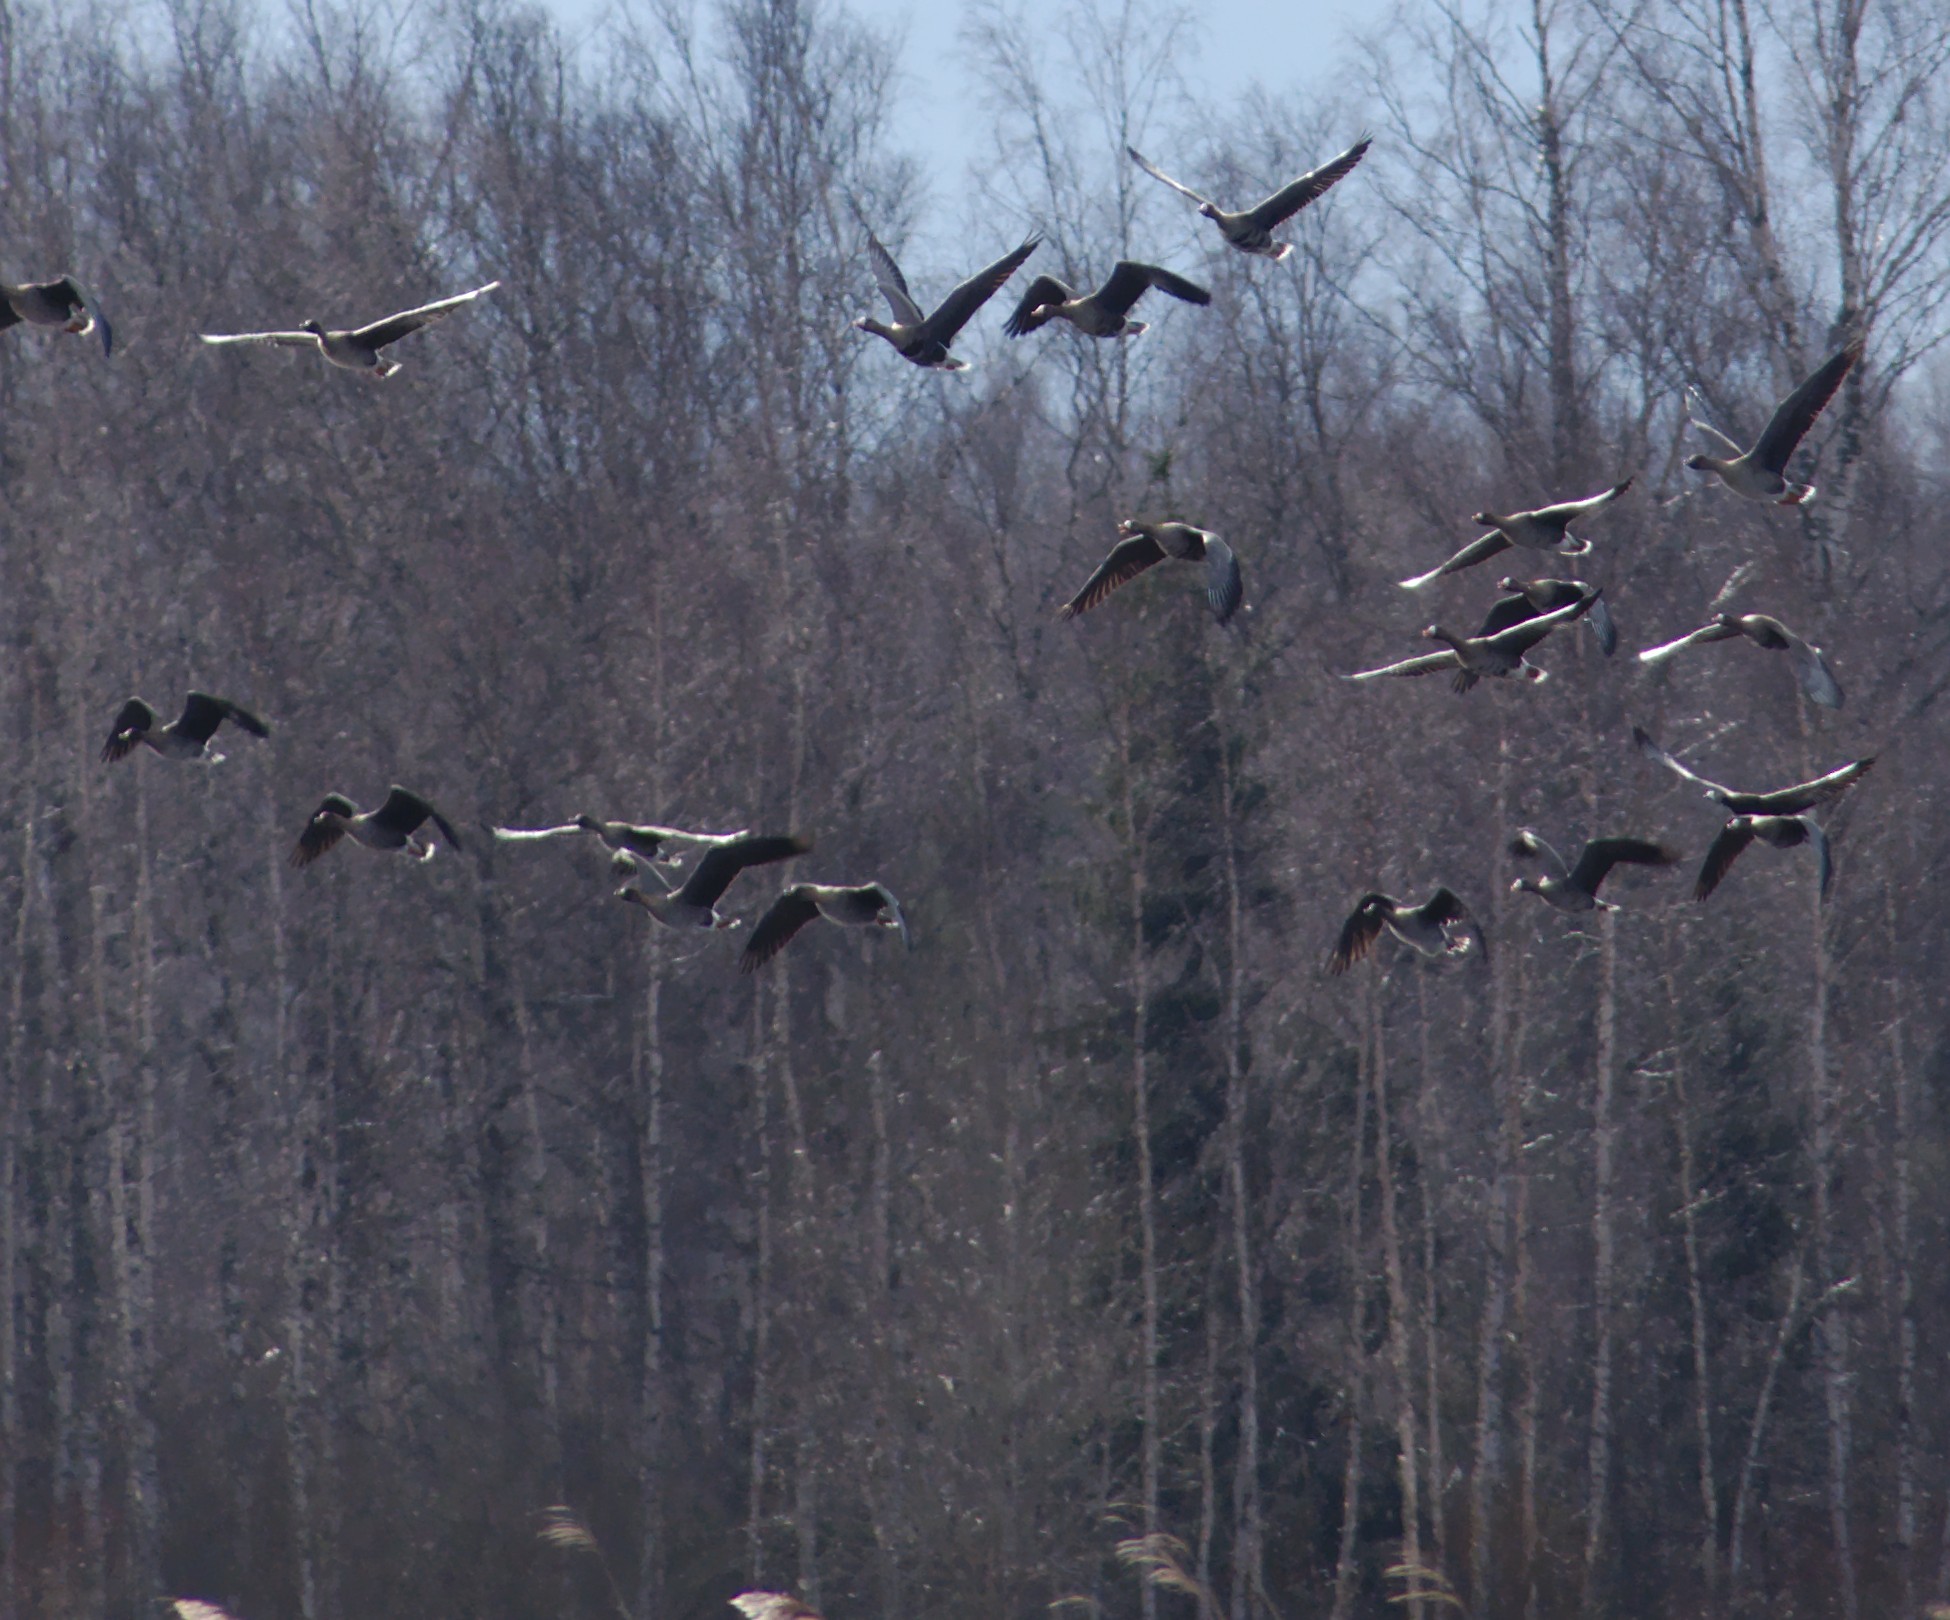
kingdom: Animalia
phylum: Chordata
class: Aves
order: Anseriformes
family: Anatidae
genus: Anser
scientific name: Anser albifrons
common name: Greater white-fronted goose
